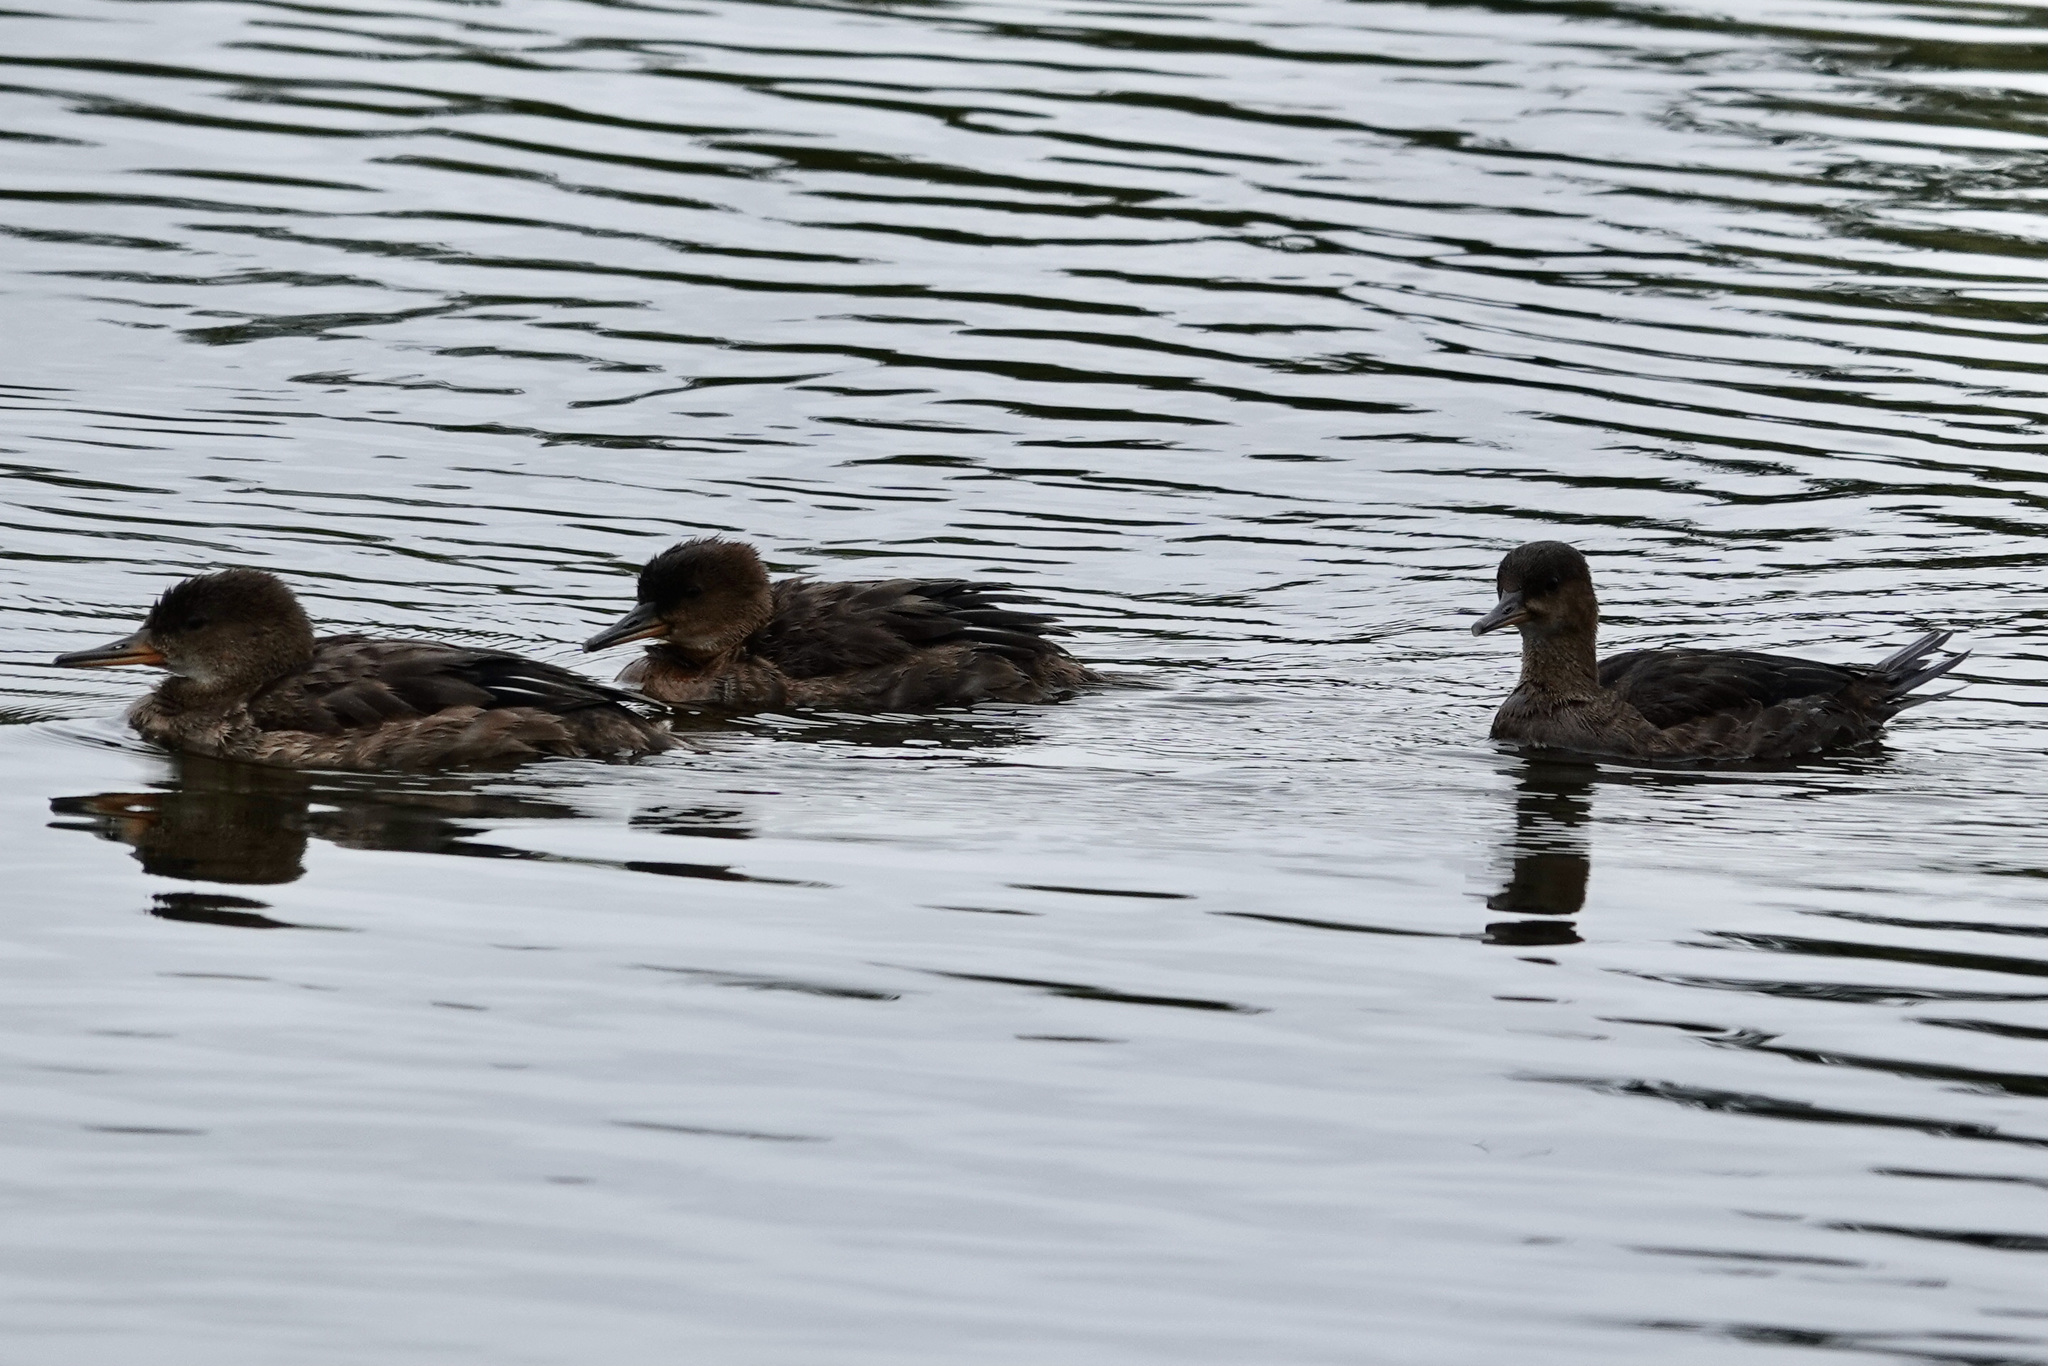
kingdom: Animalia
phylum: Chordata
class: Aves
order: Anseriformes
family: Anatidae
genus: Lophodytes
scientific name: Lophodytes cucullatus
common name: Hooded merganser
